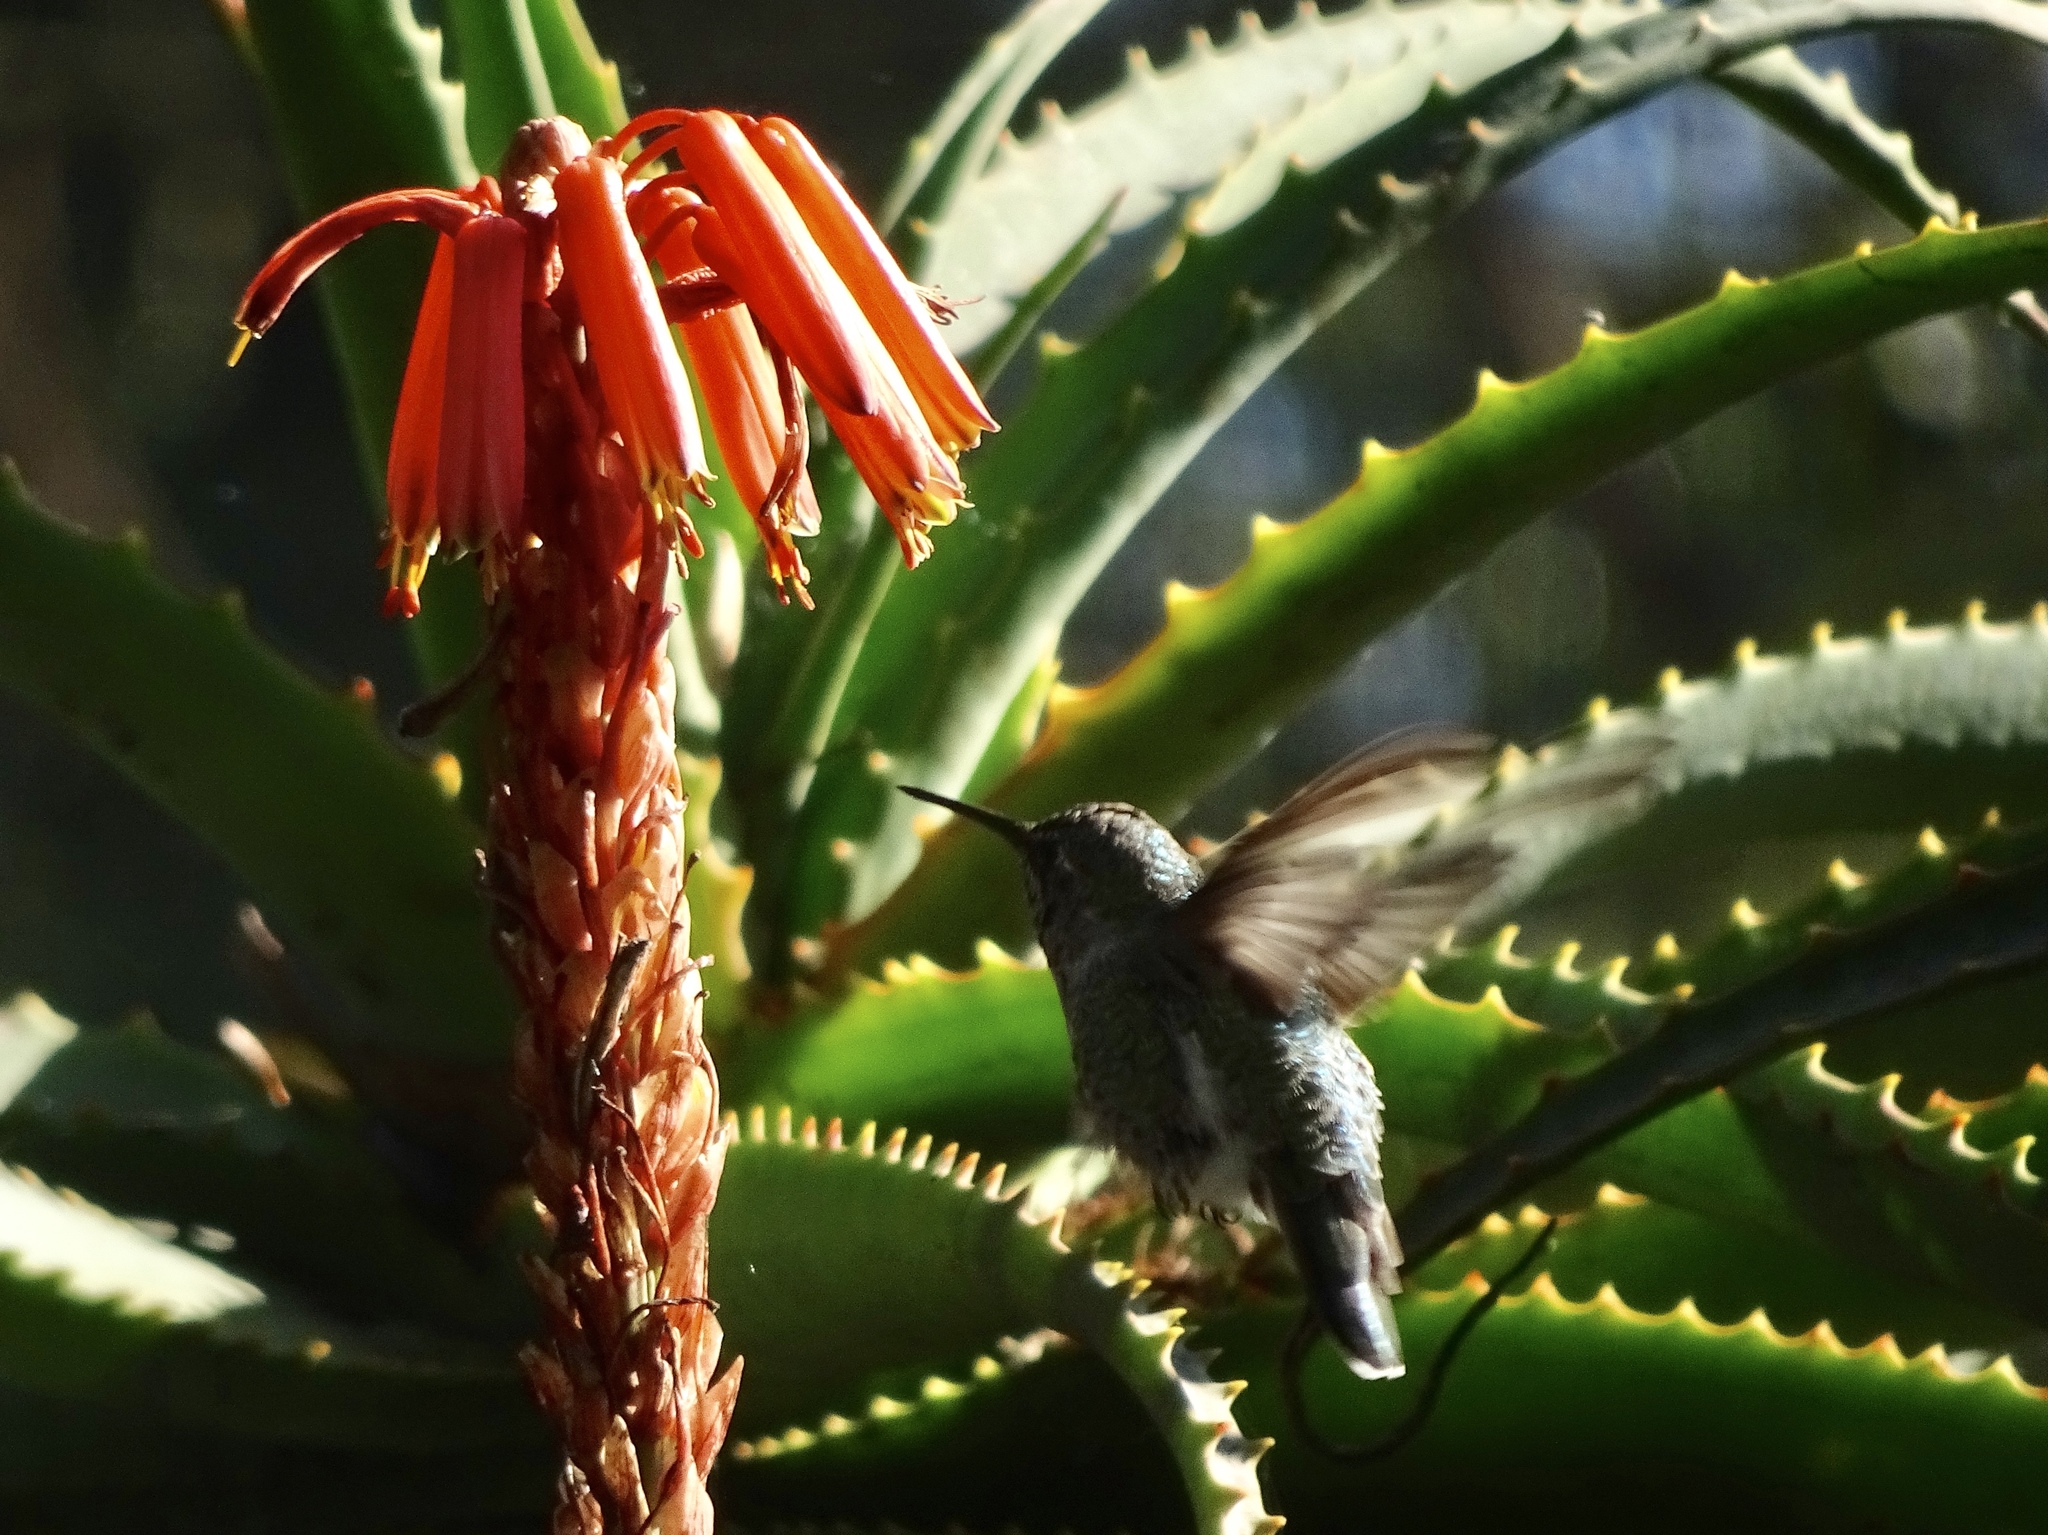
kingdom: Animalia
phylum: Chordata
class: Aves
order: Apodiformes
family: Trochilidae
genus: Calypte
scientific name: Calypte anna
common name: Anna's hummingbird
